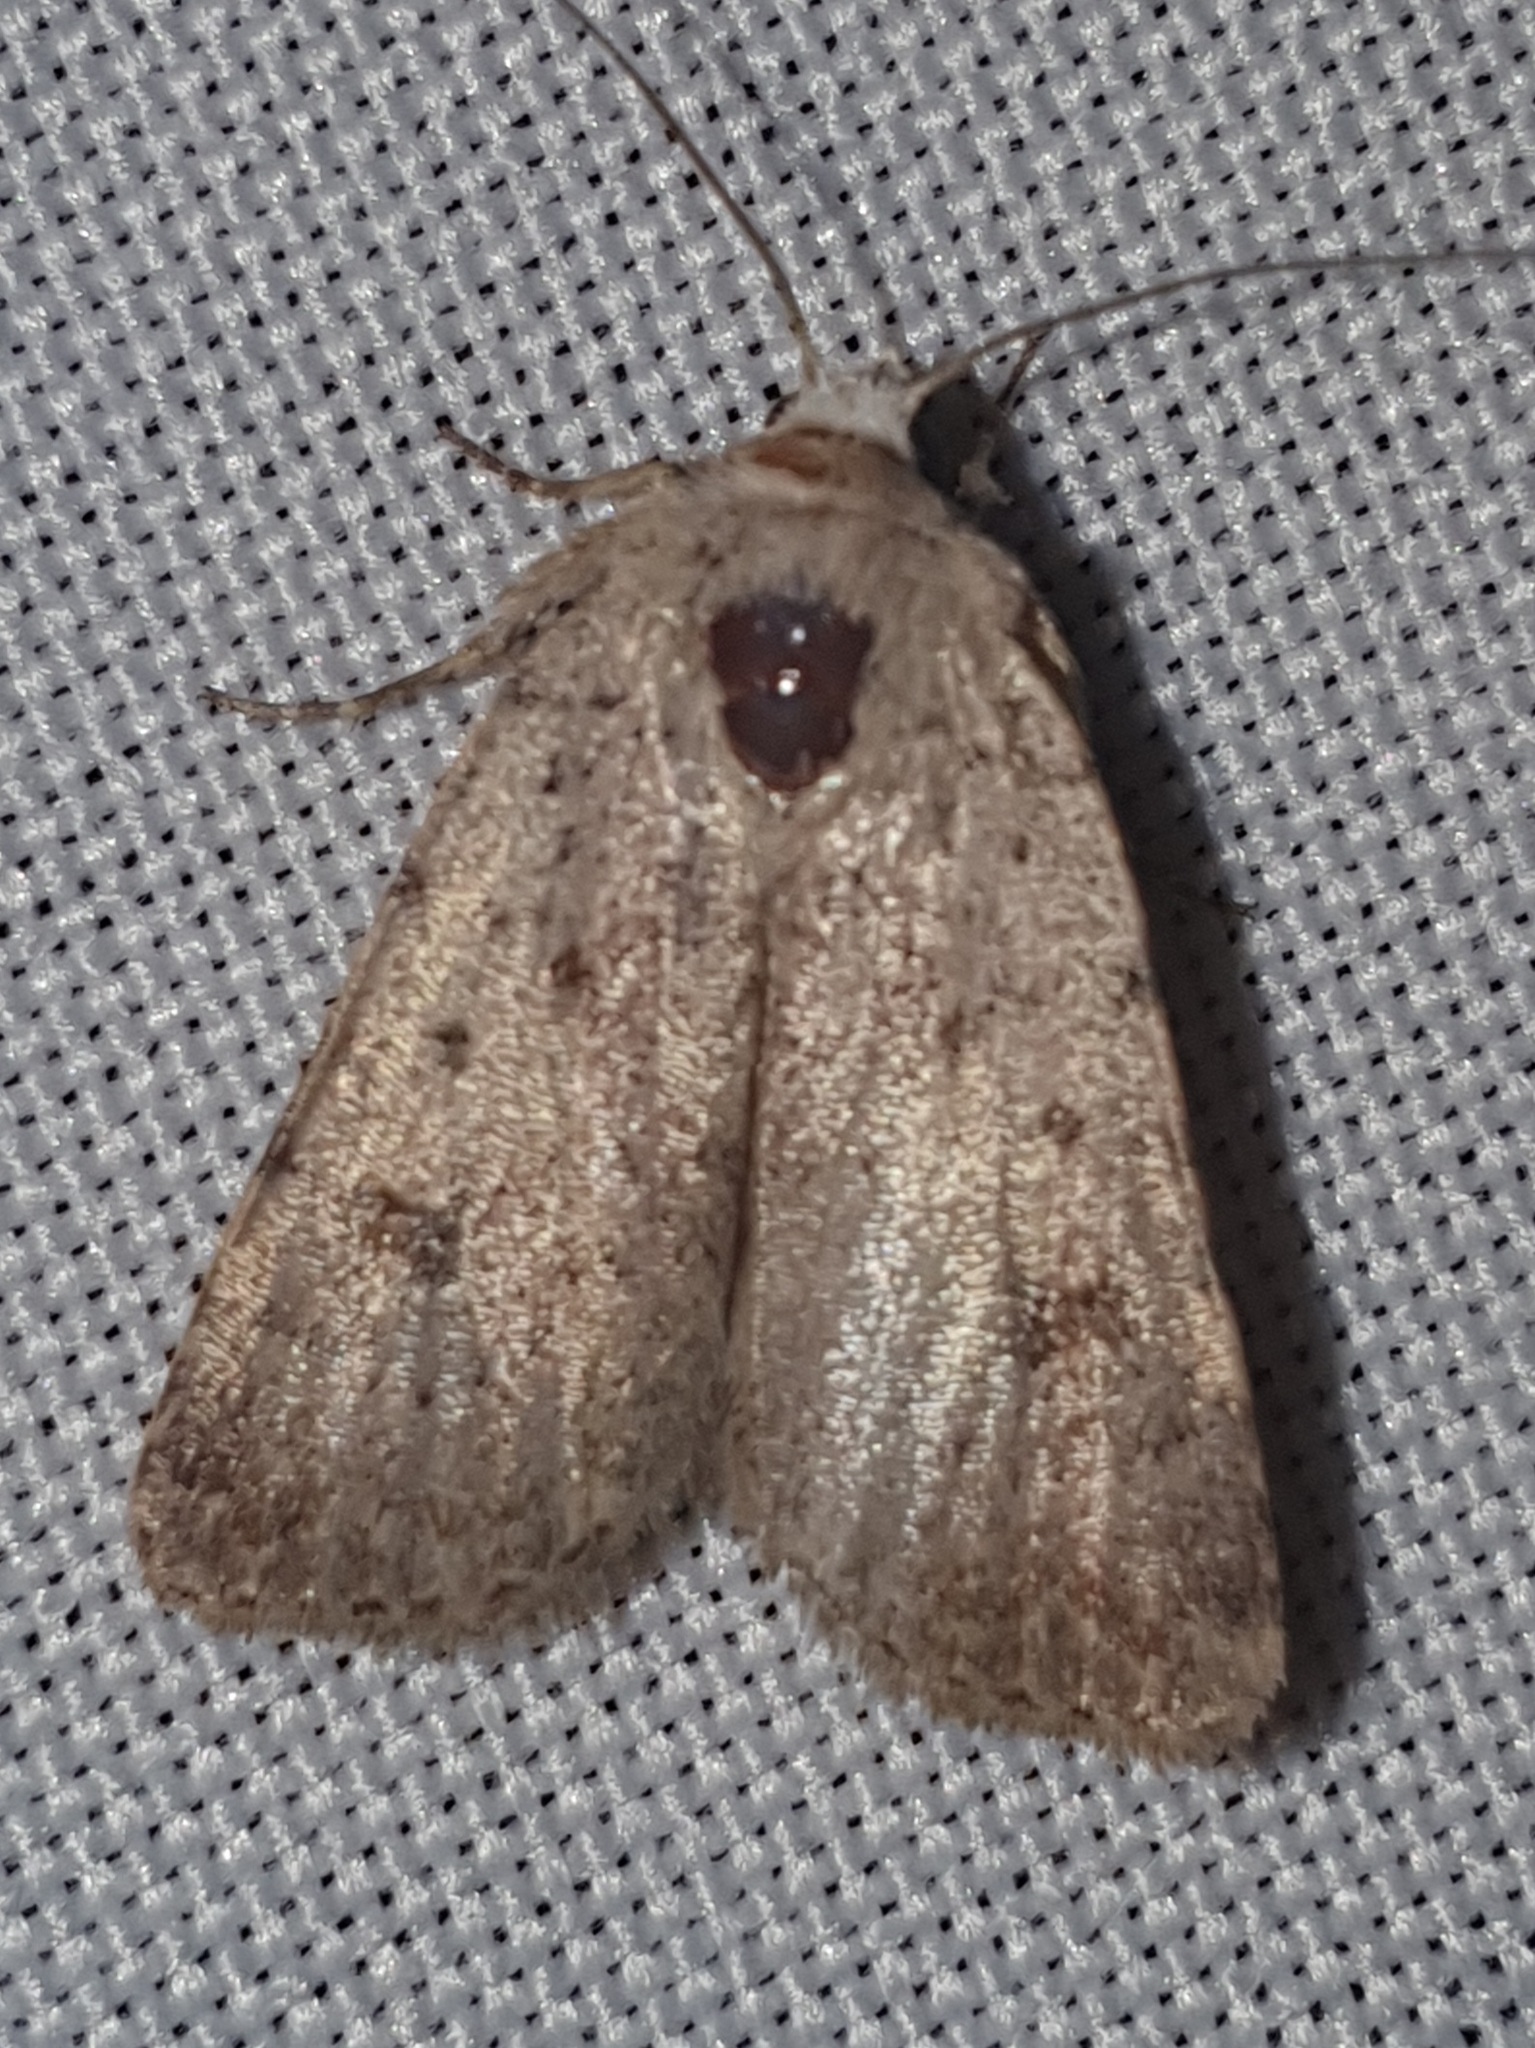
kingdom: Animalia
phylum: Arthropoda
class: Insecta
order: Lepidoptera
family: Noctuidae
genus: Caradrina
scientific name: Caradrina selini
